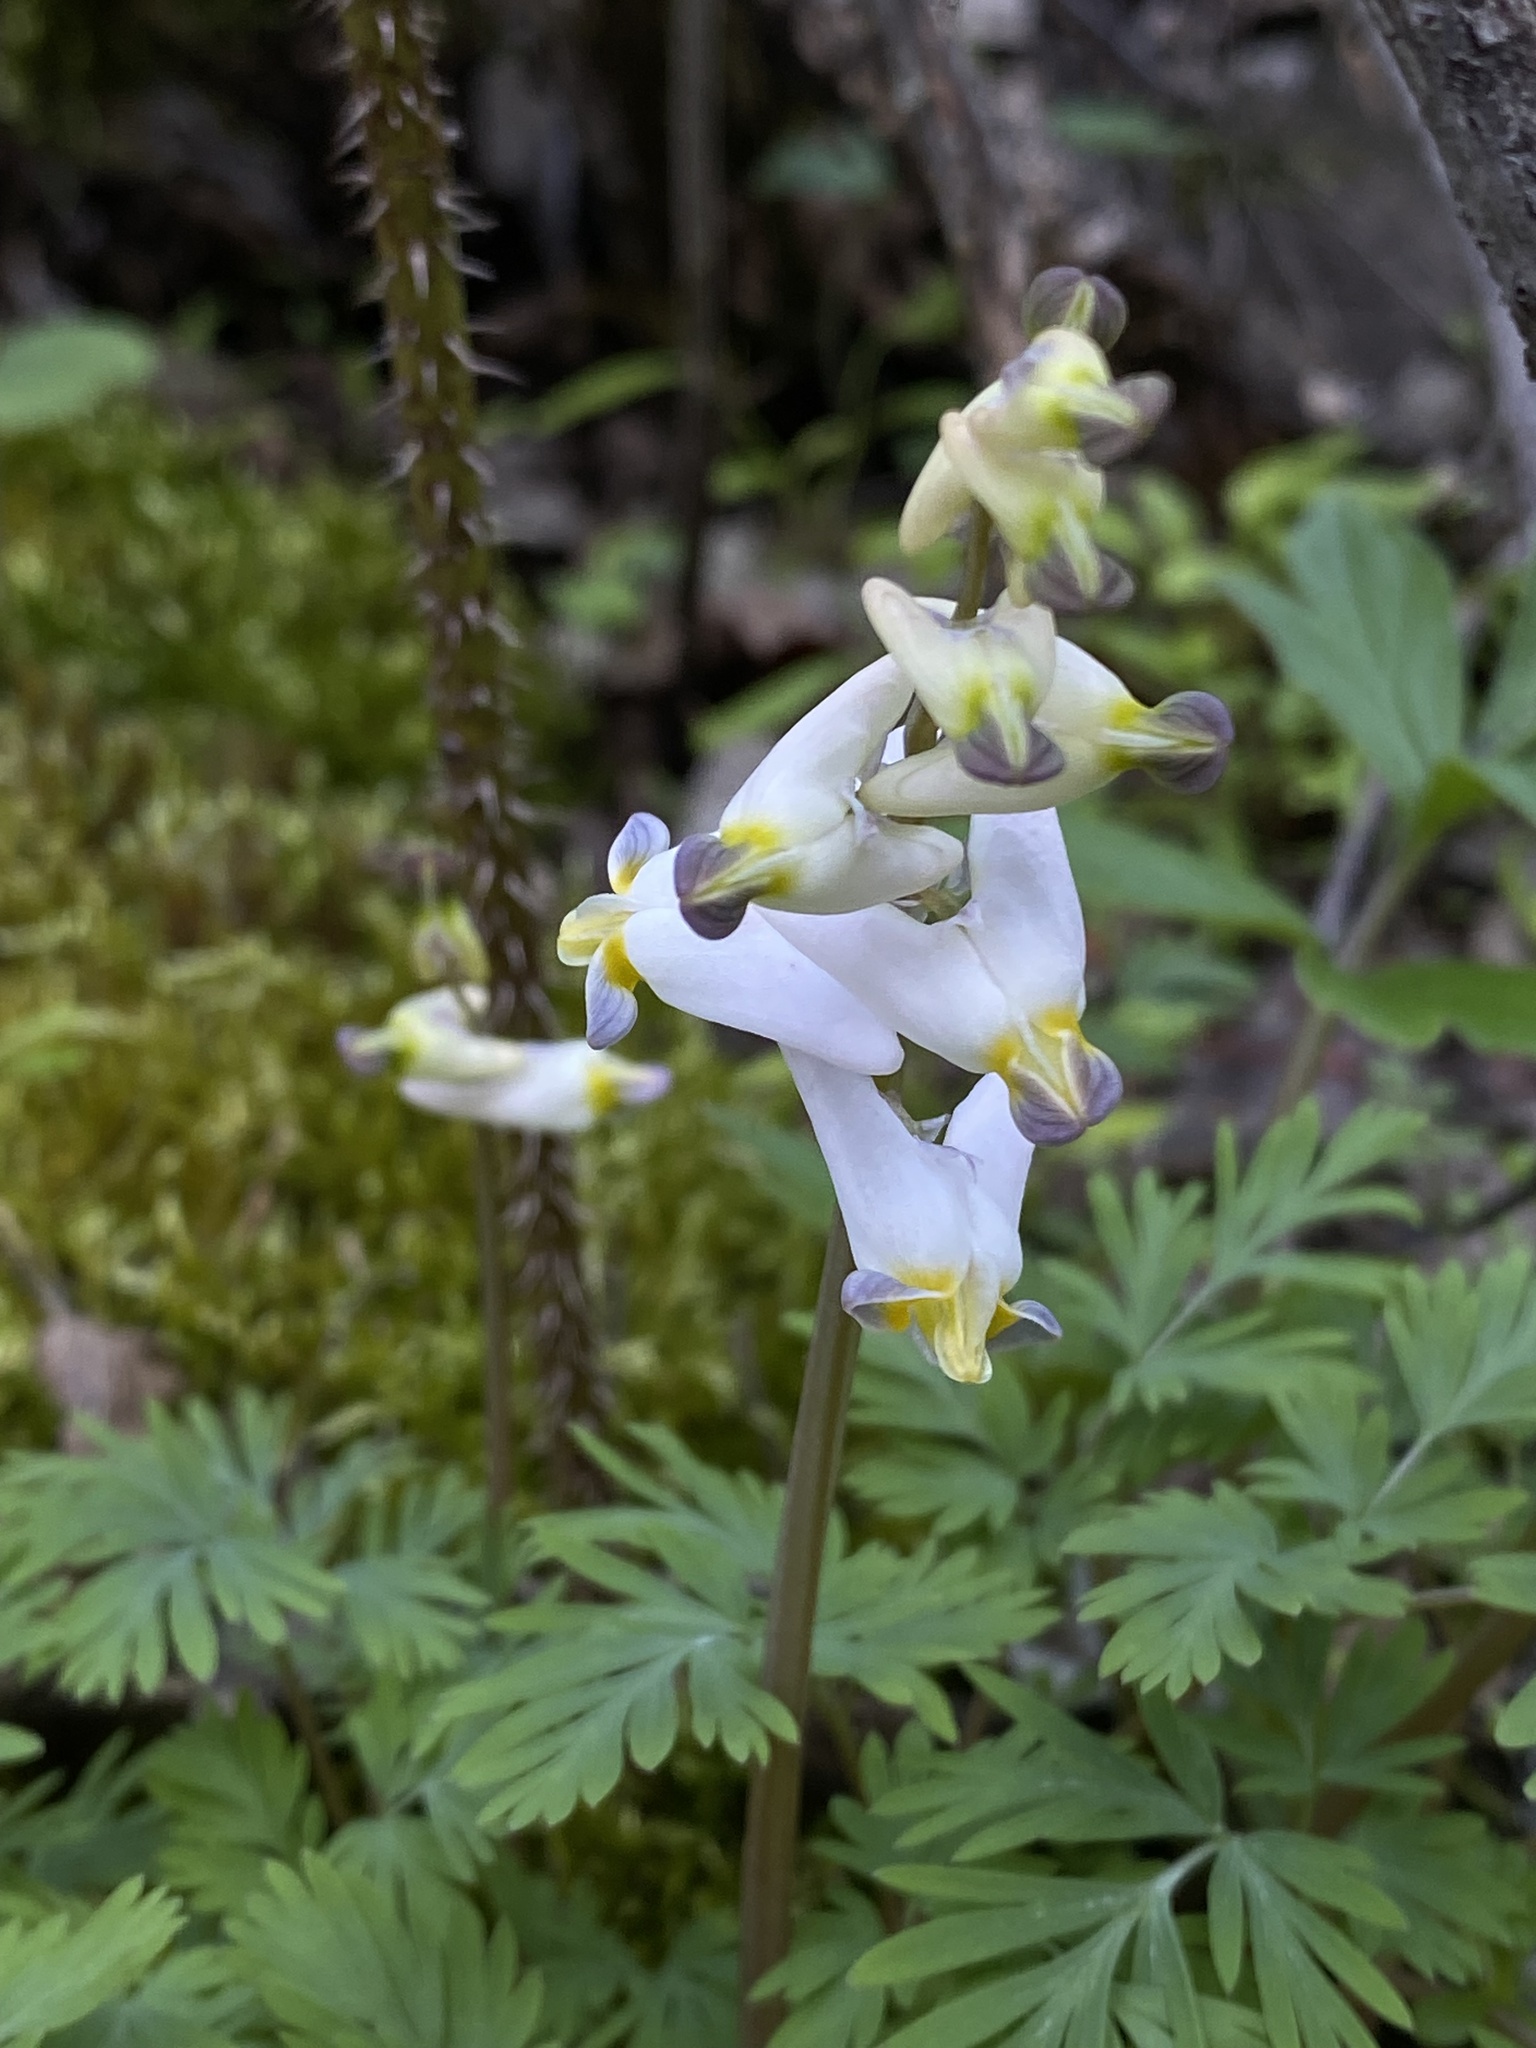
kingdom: Plantae
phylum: Tracheophyta
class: Magnoliopsida
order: Ranunculales
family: Papaveraceae
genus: Dicentra
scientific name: Dicentra cucullaria
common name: Dutchman's breeches
